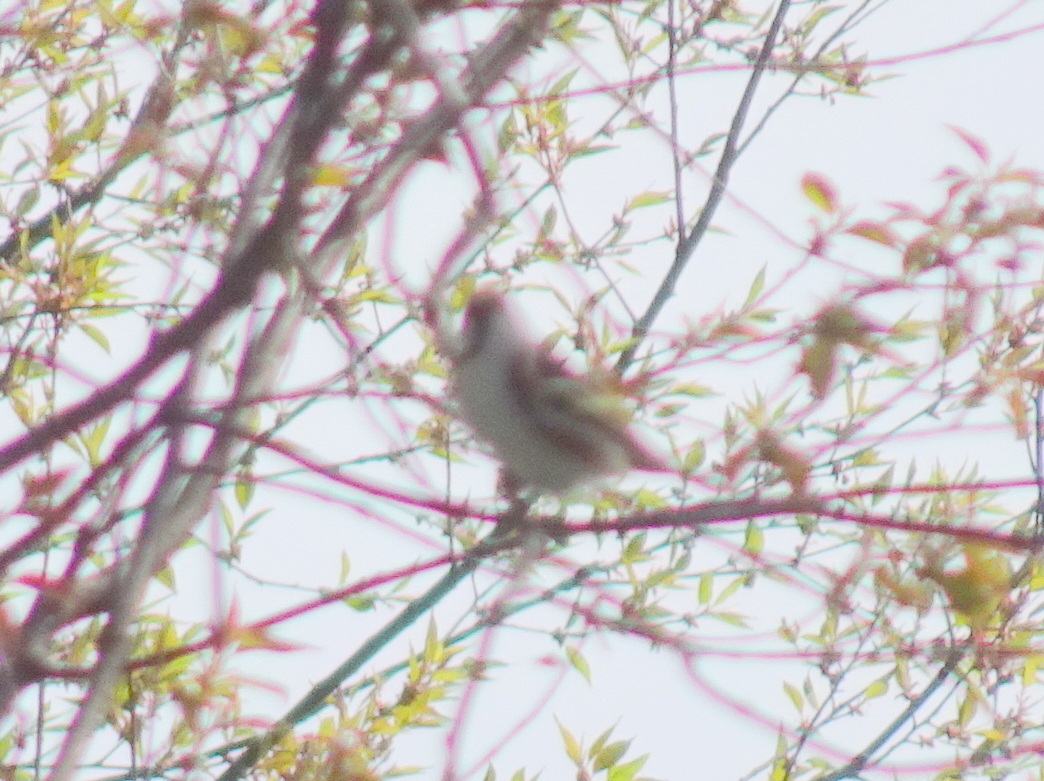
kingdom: Animalia
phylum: Chordata
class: Aves
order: Passeriformes
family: Parulidae
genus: Setophaga
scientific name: Setophaga pensylvanica
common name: Chestnut-sided warbler
